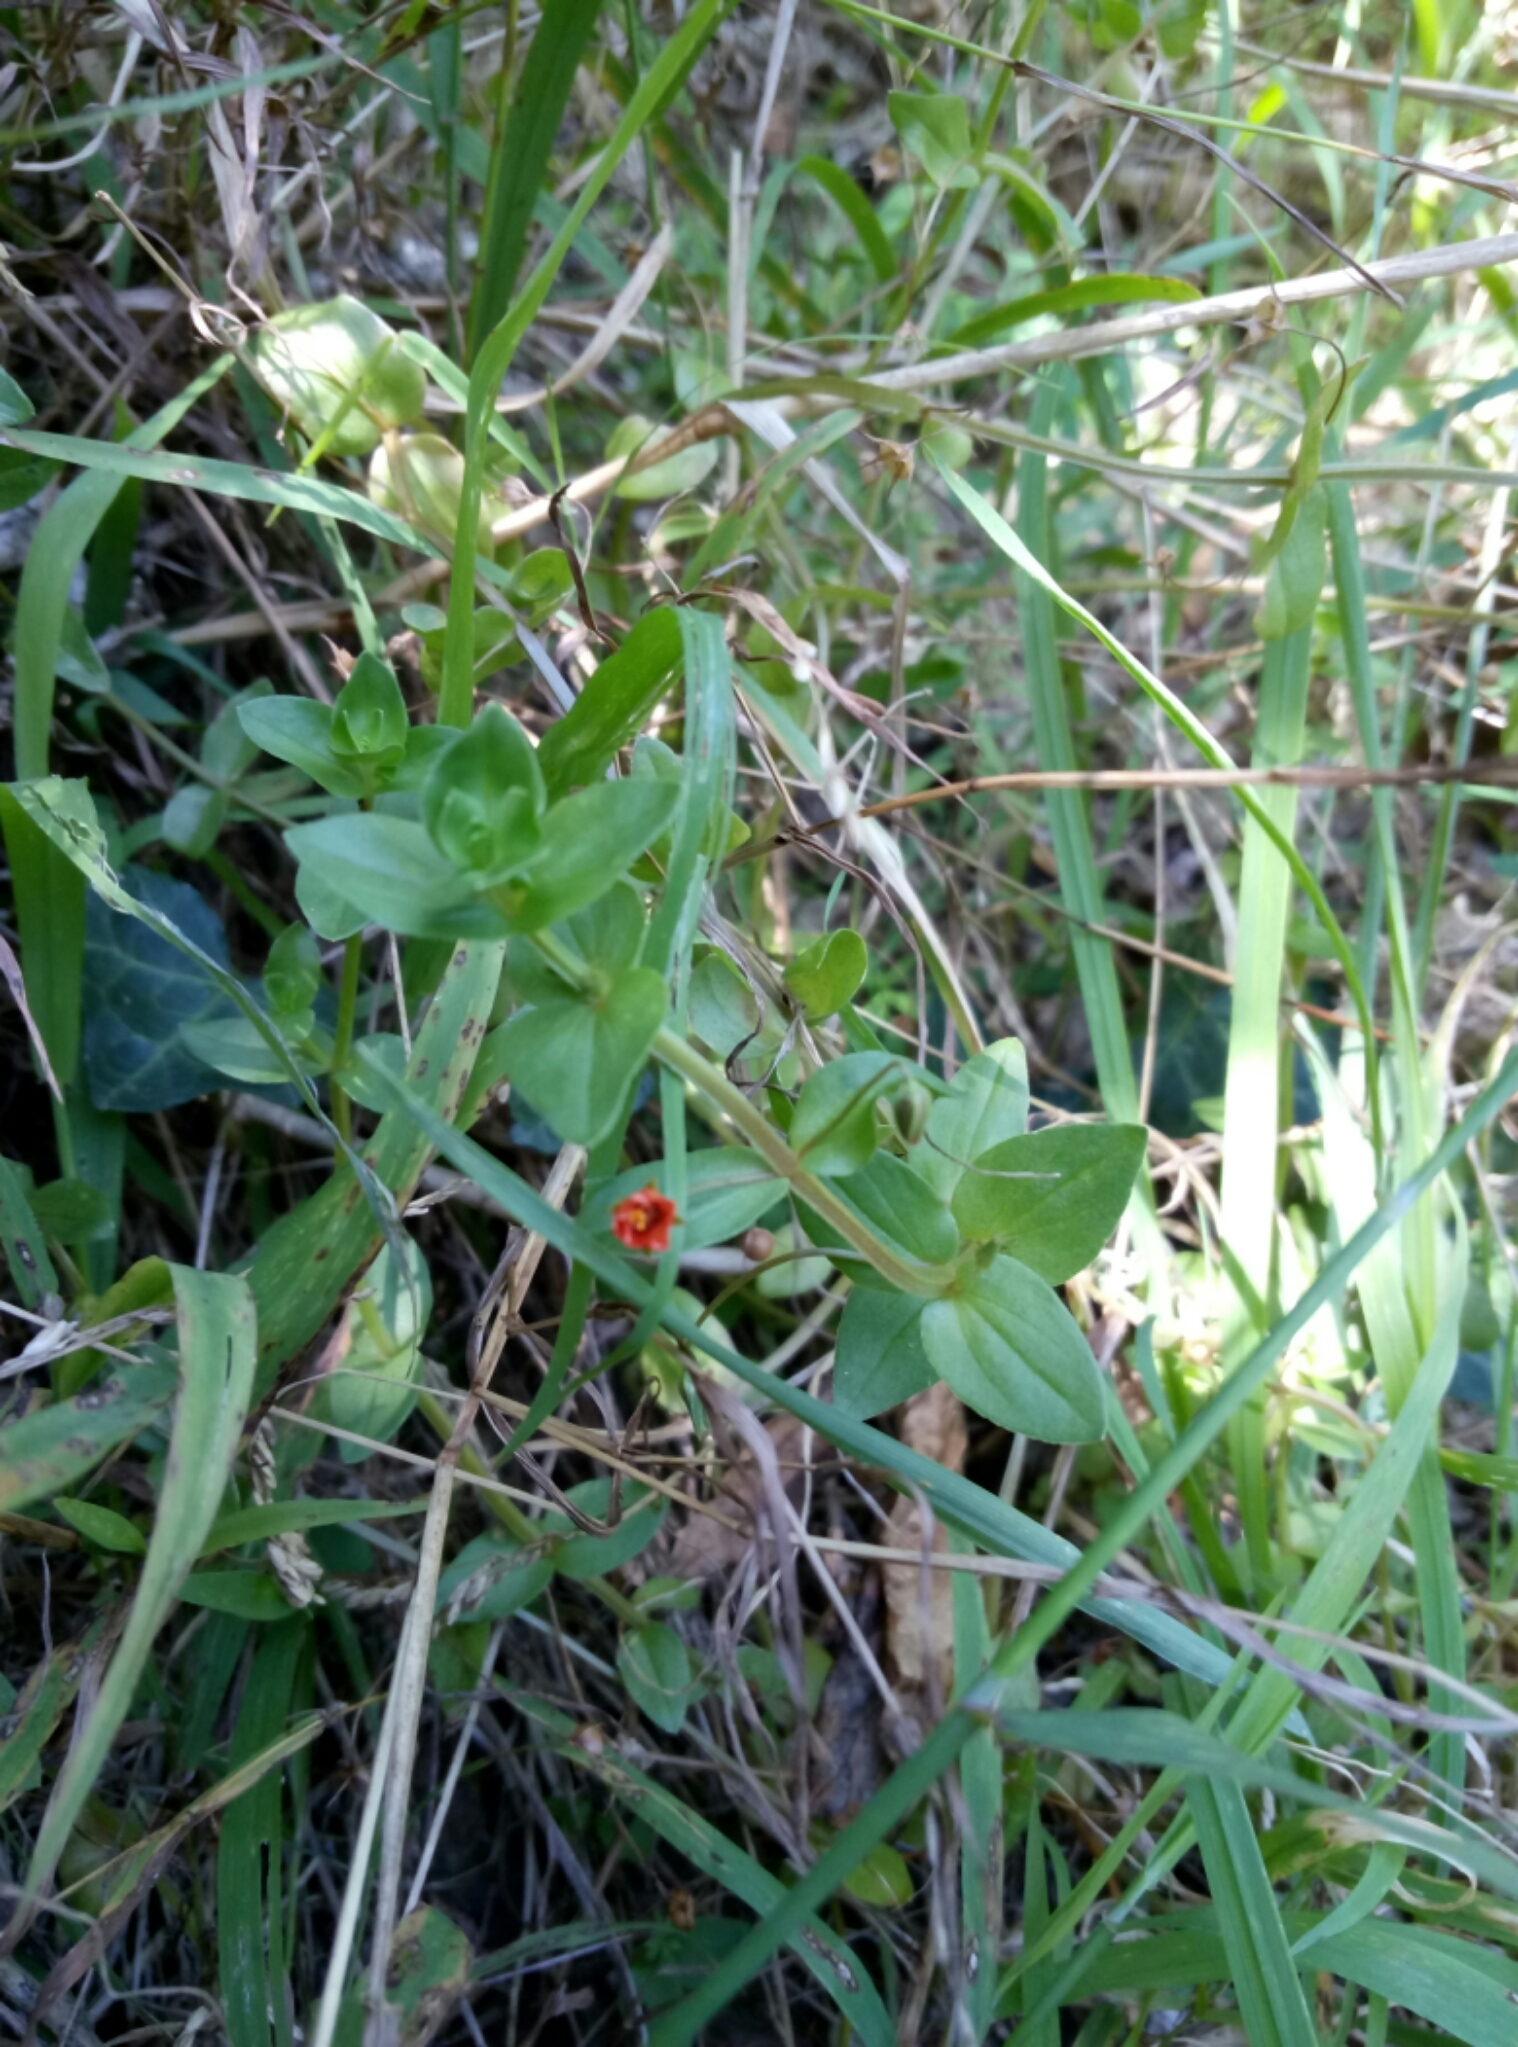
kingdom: Plantae
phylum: Tracheophyta
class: Magnoliopsida
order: Ericales
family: Primulaceae
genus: Lysimachia
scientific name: Lysimachia arvensis
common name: Scarlet pimpernel
